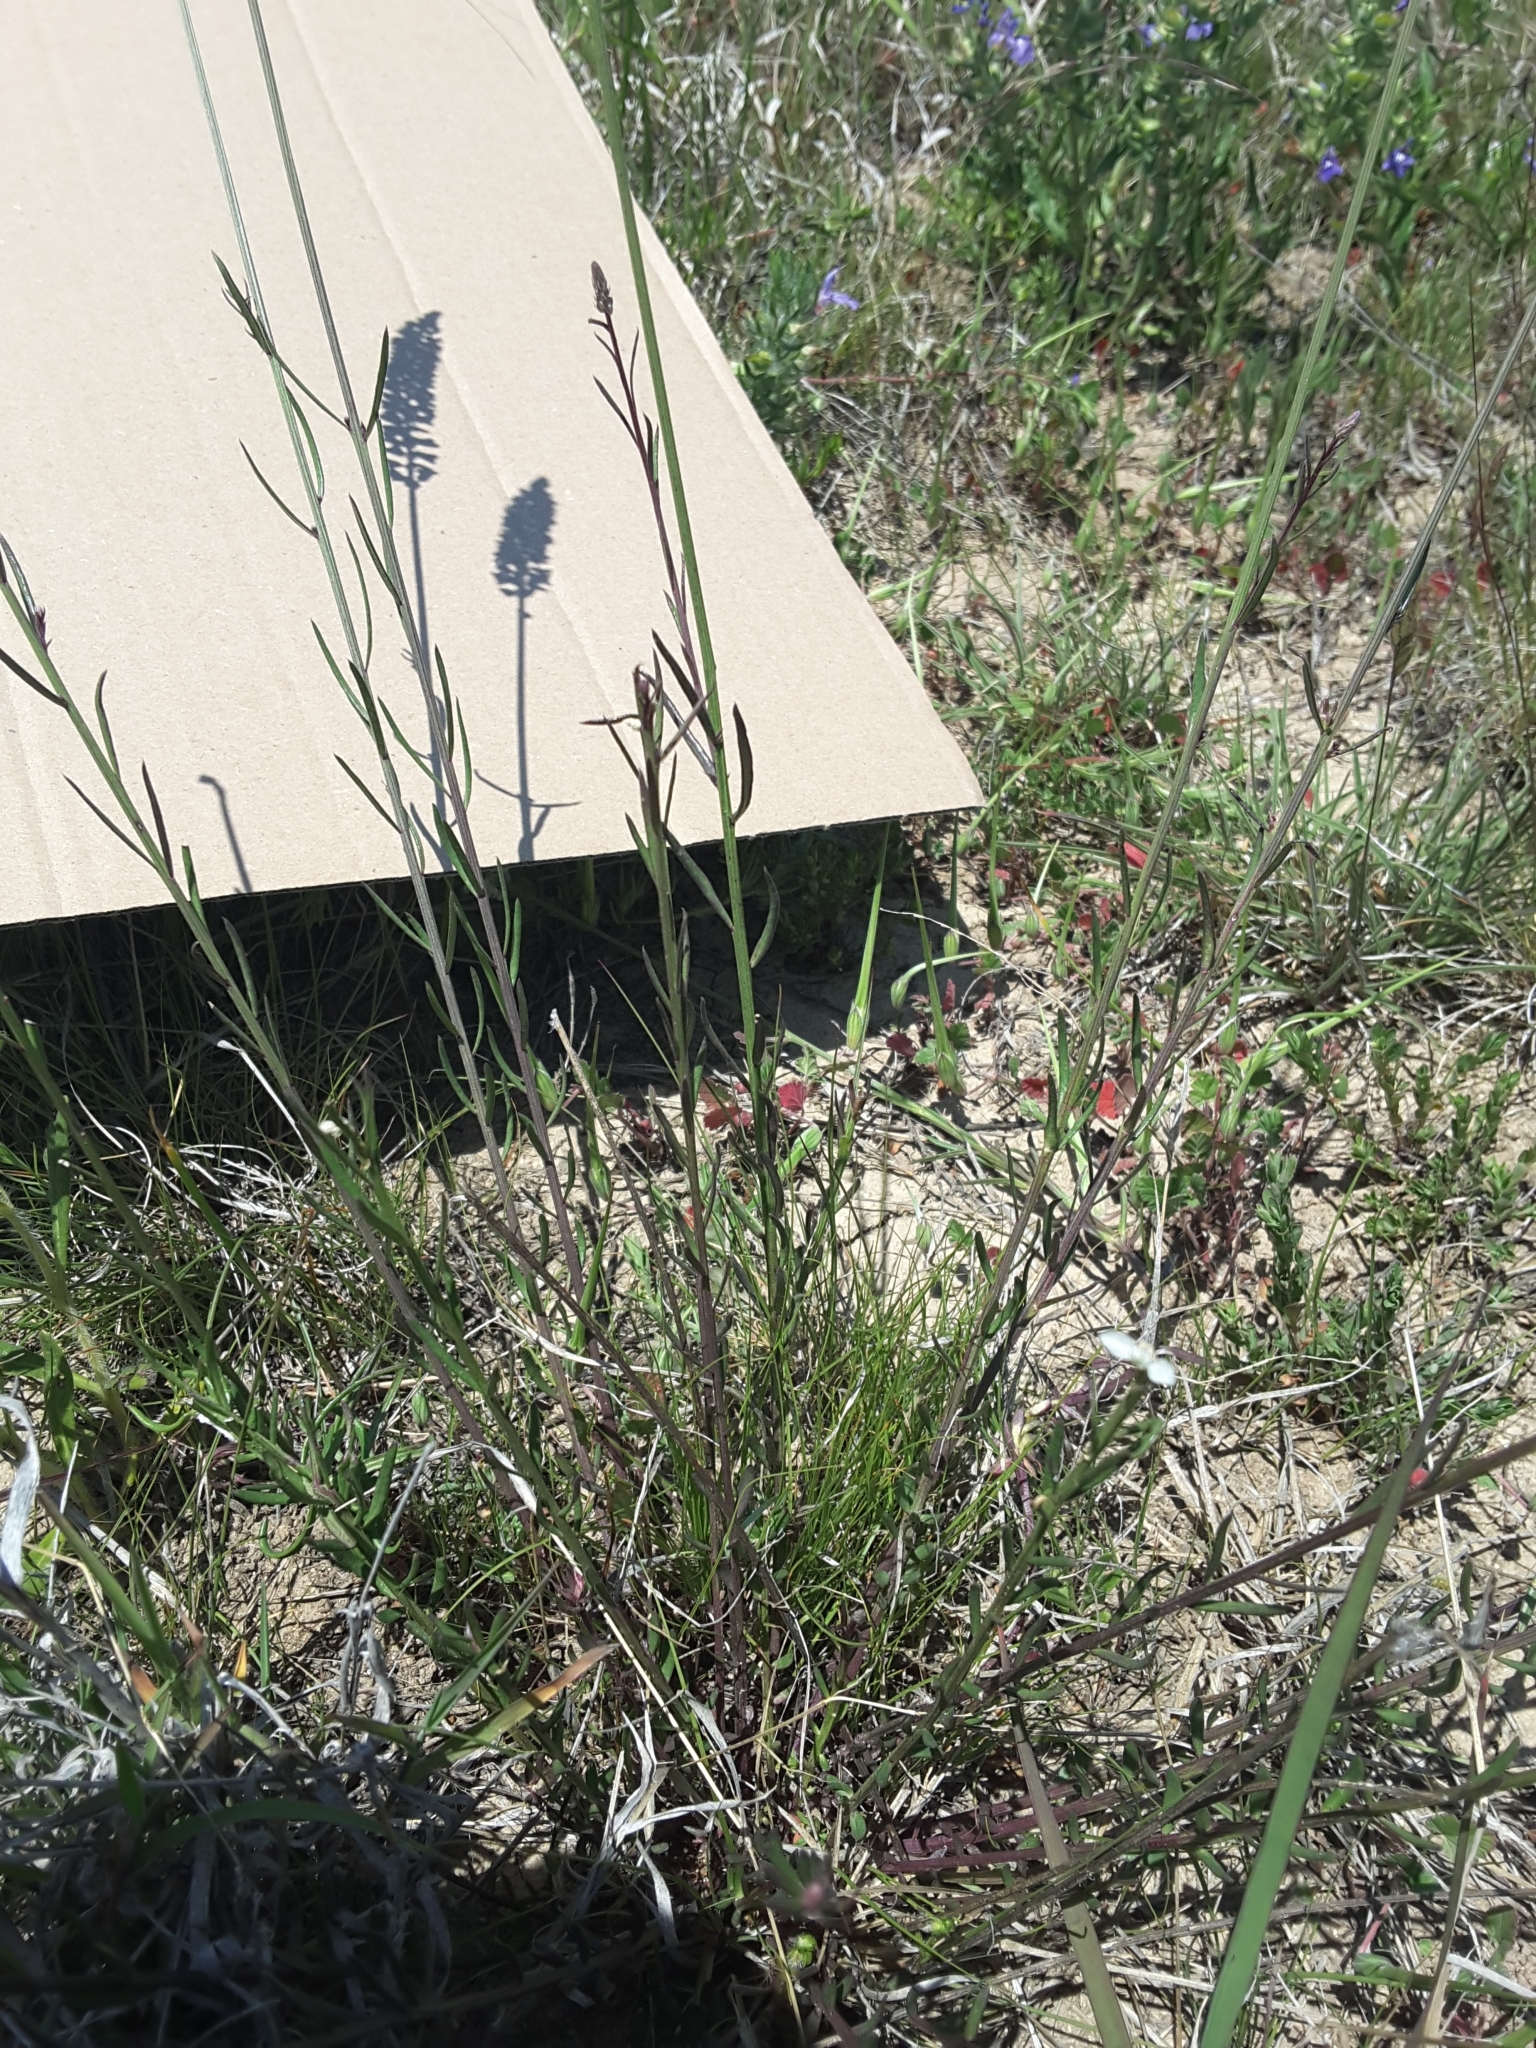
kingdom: Plantae
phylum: Tracheophyta
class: Magnoliopsida
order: Fabales
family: Polygalaceae
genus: Polygala
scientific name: Polygala alba
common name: White milkwort
